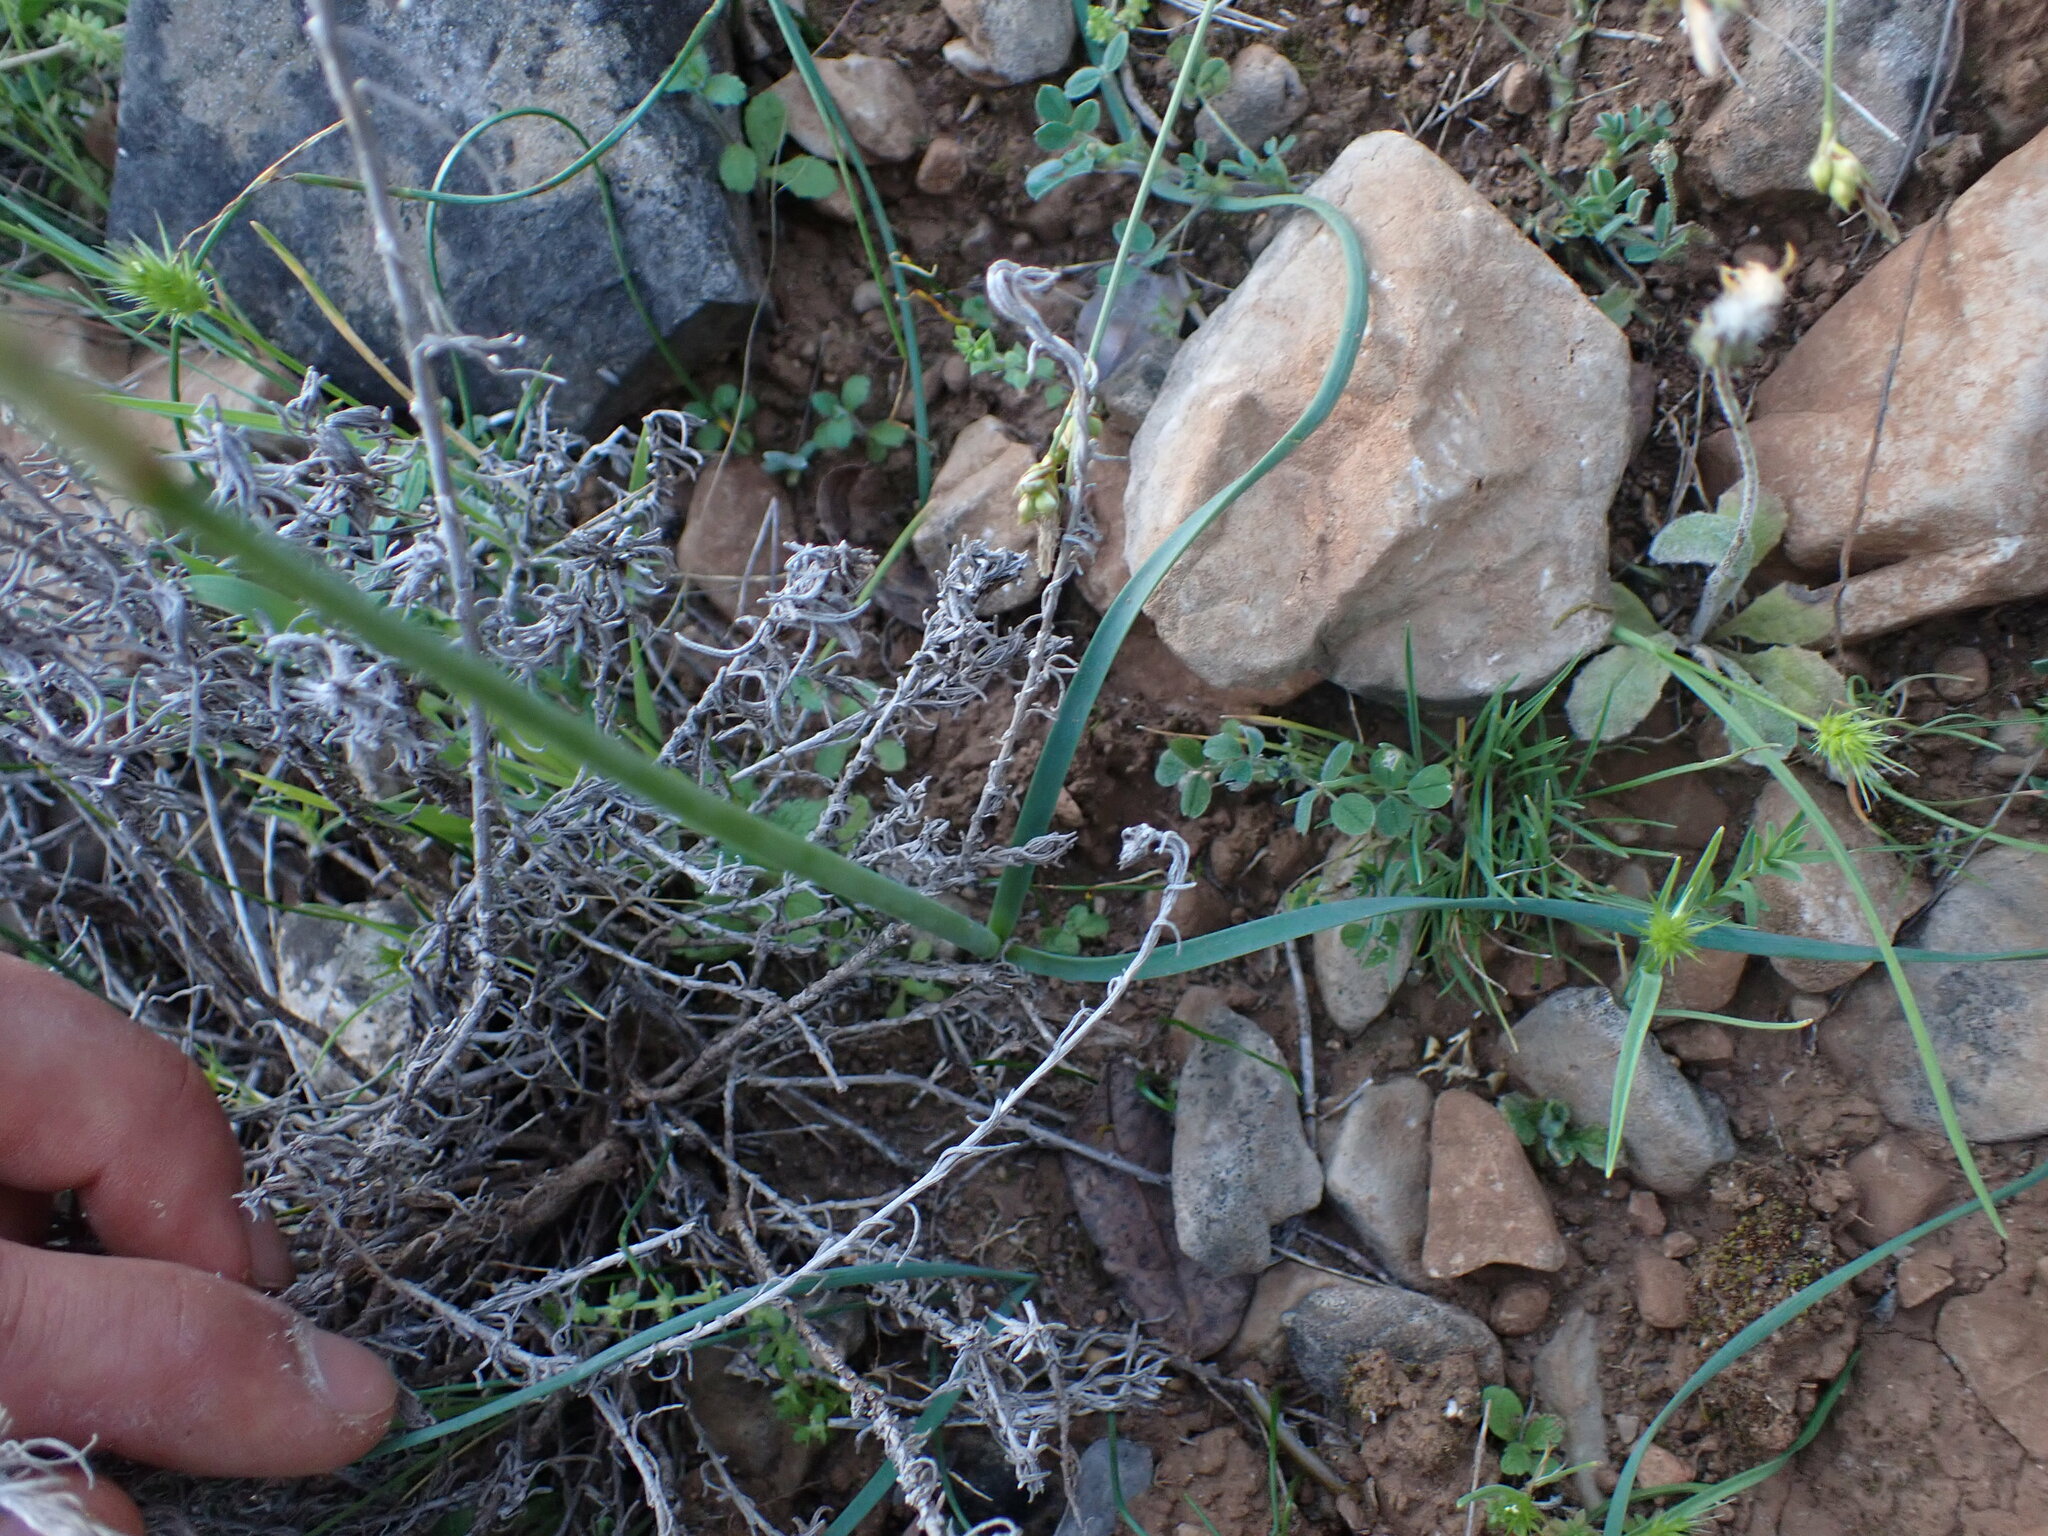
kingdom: Plantae
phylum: Tracheophyta
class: Liliopsida
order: Asparagales
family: Amaryllidaceae
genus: Narcissus
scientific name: Narcissus dubius
